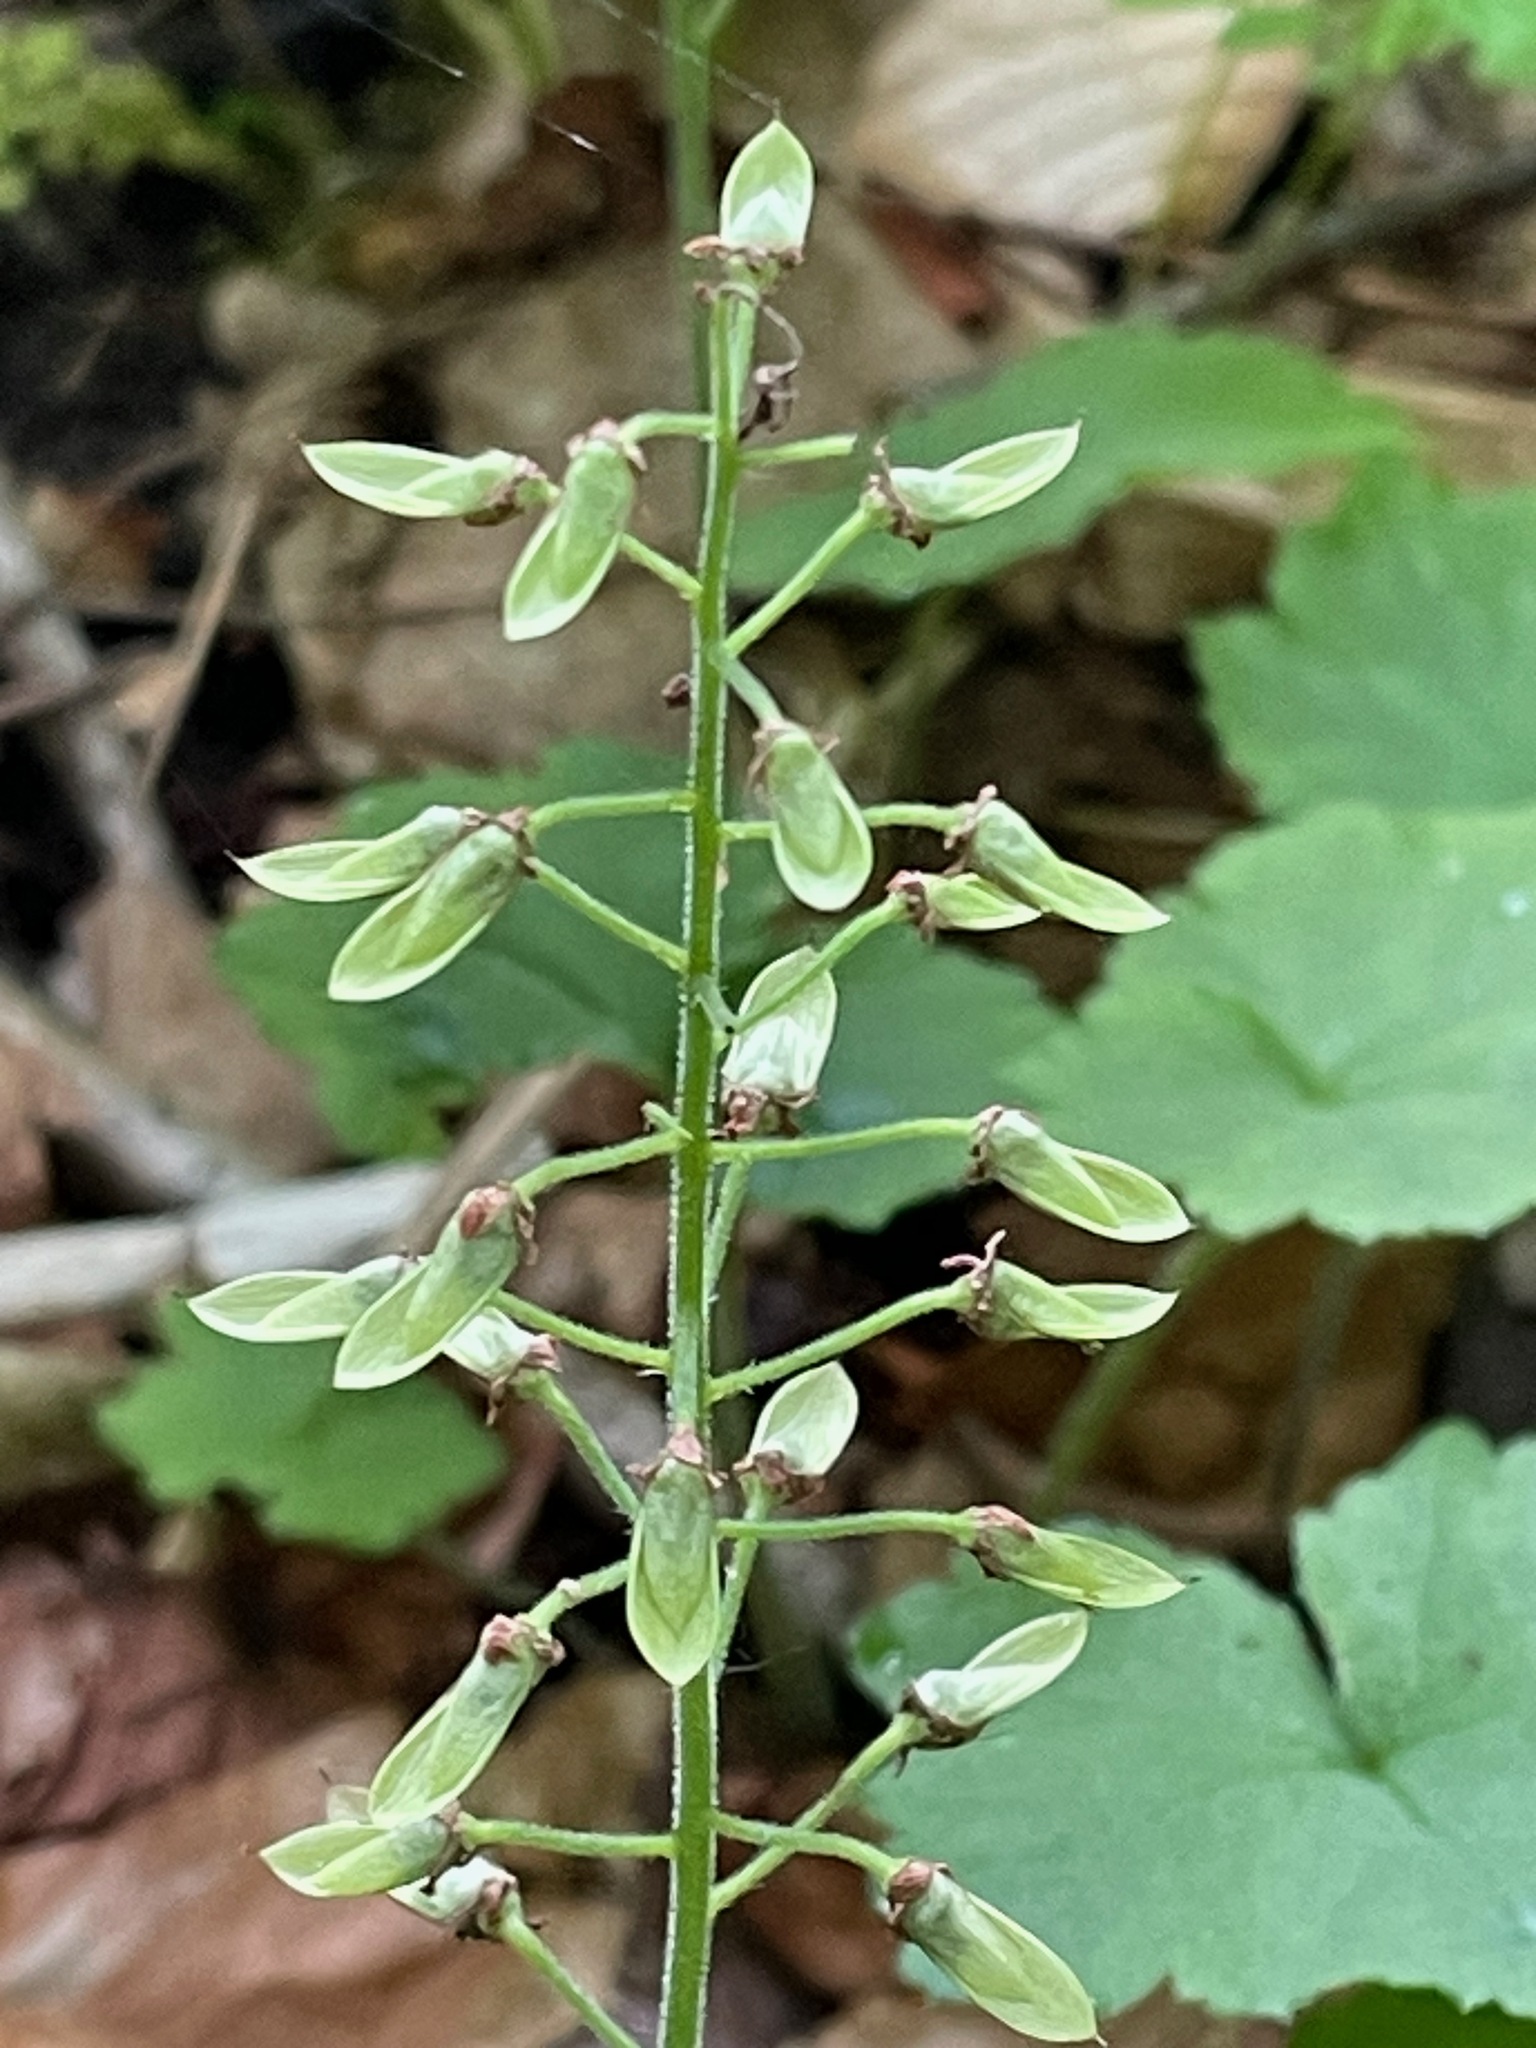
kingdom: Plantae
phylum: Tracheophyta
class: Magnoliopsida
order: Saxifragales
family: Saxifragaceae
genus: Tiarella
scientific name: Tiarella stolonifera
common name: Stoloniferous foamflower
